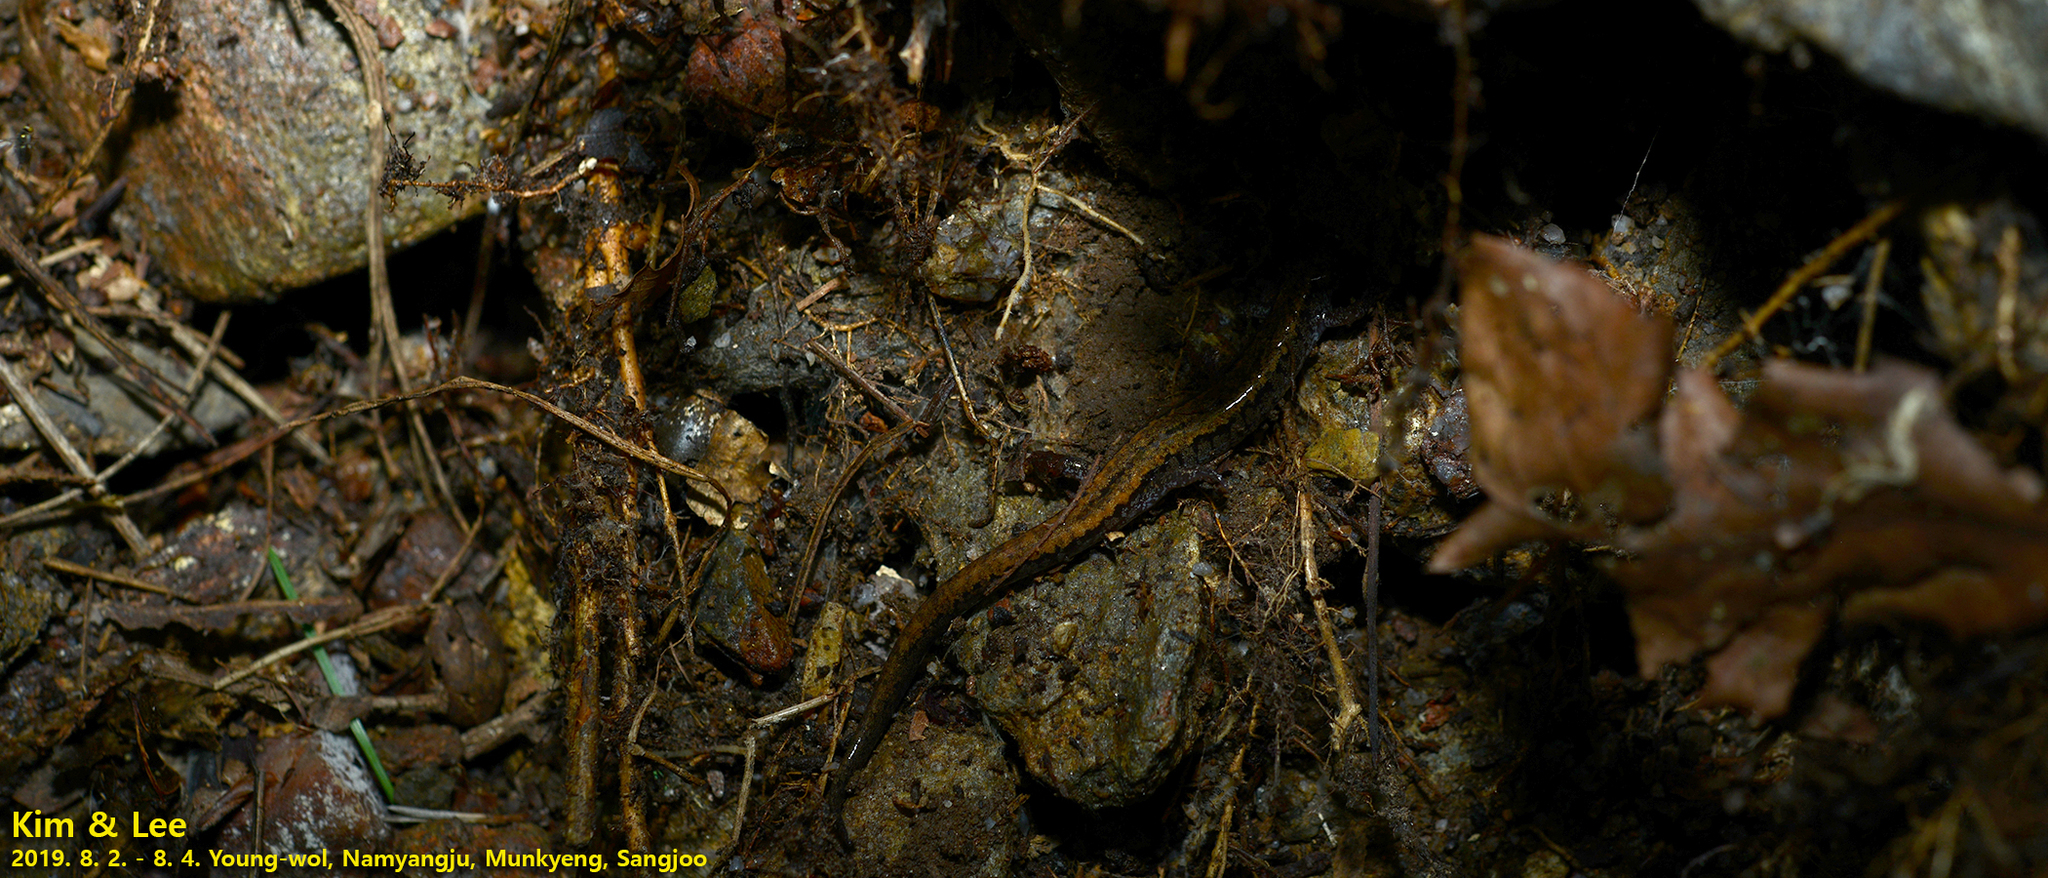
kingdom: Animalia
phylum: Chordata
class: Amphibia
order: Caudata
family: Plethodontidae
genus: Karsenia
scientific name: Karsenia koreana
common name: Korean crevice salamander
